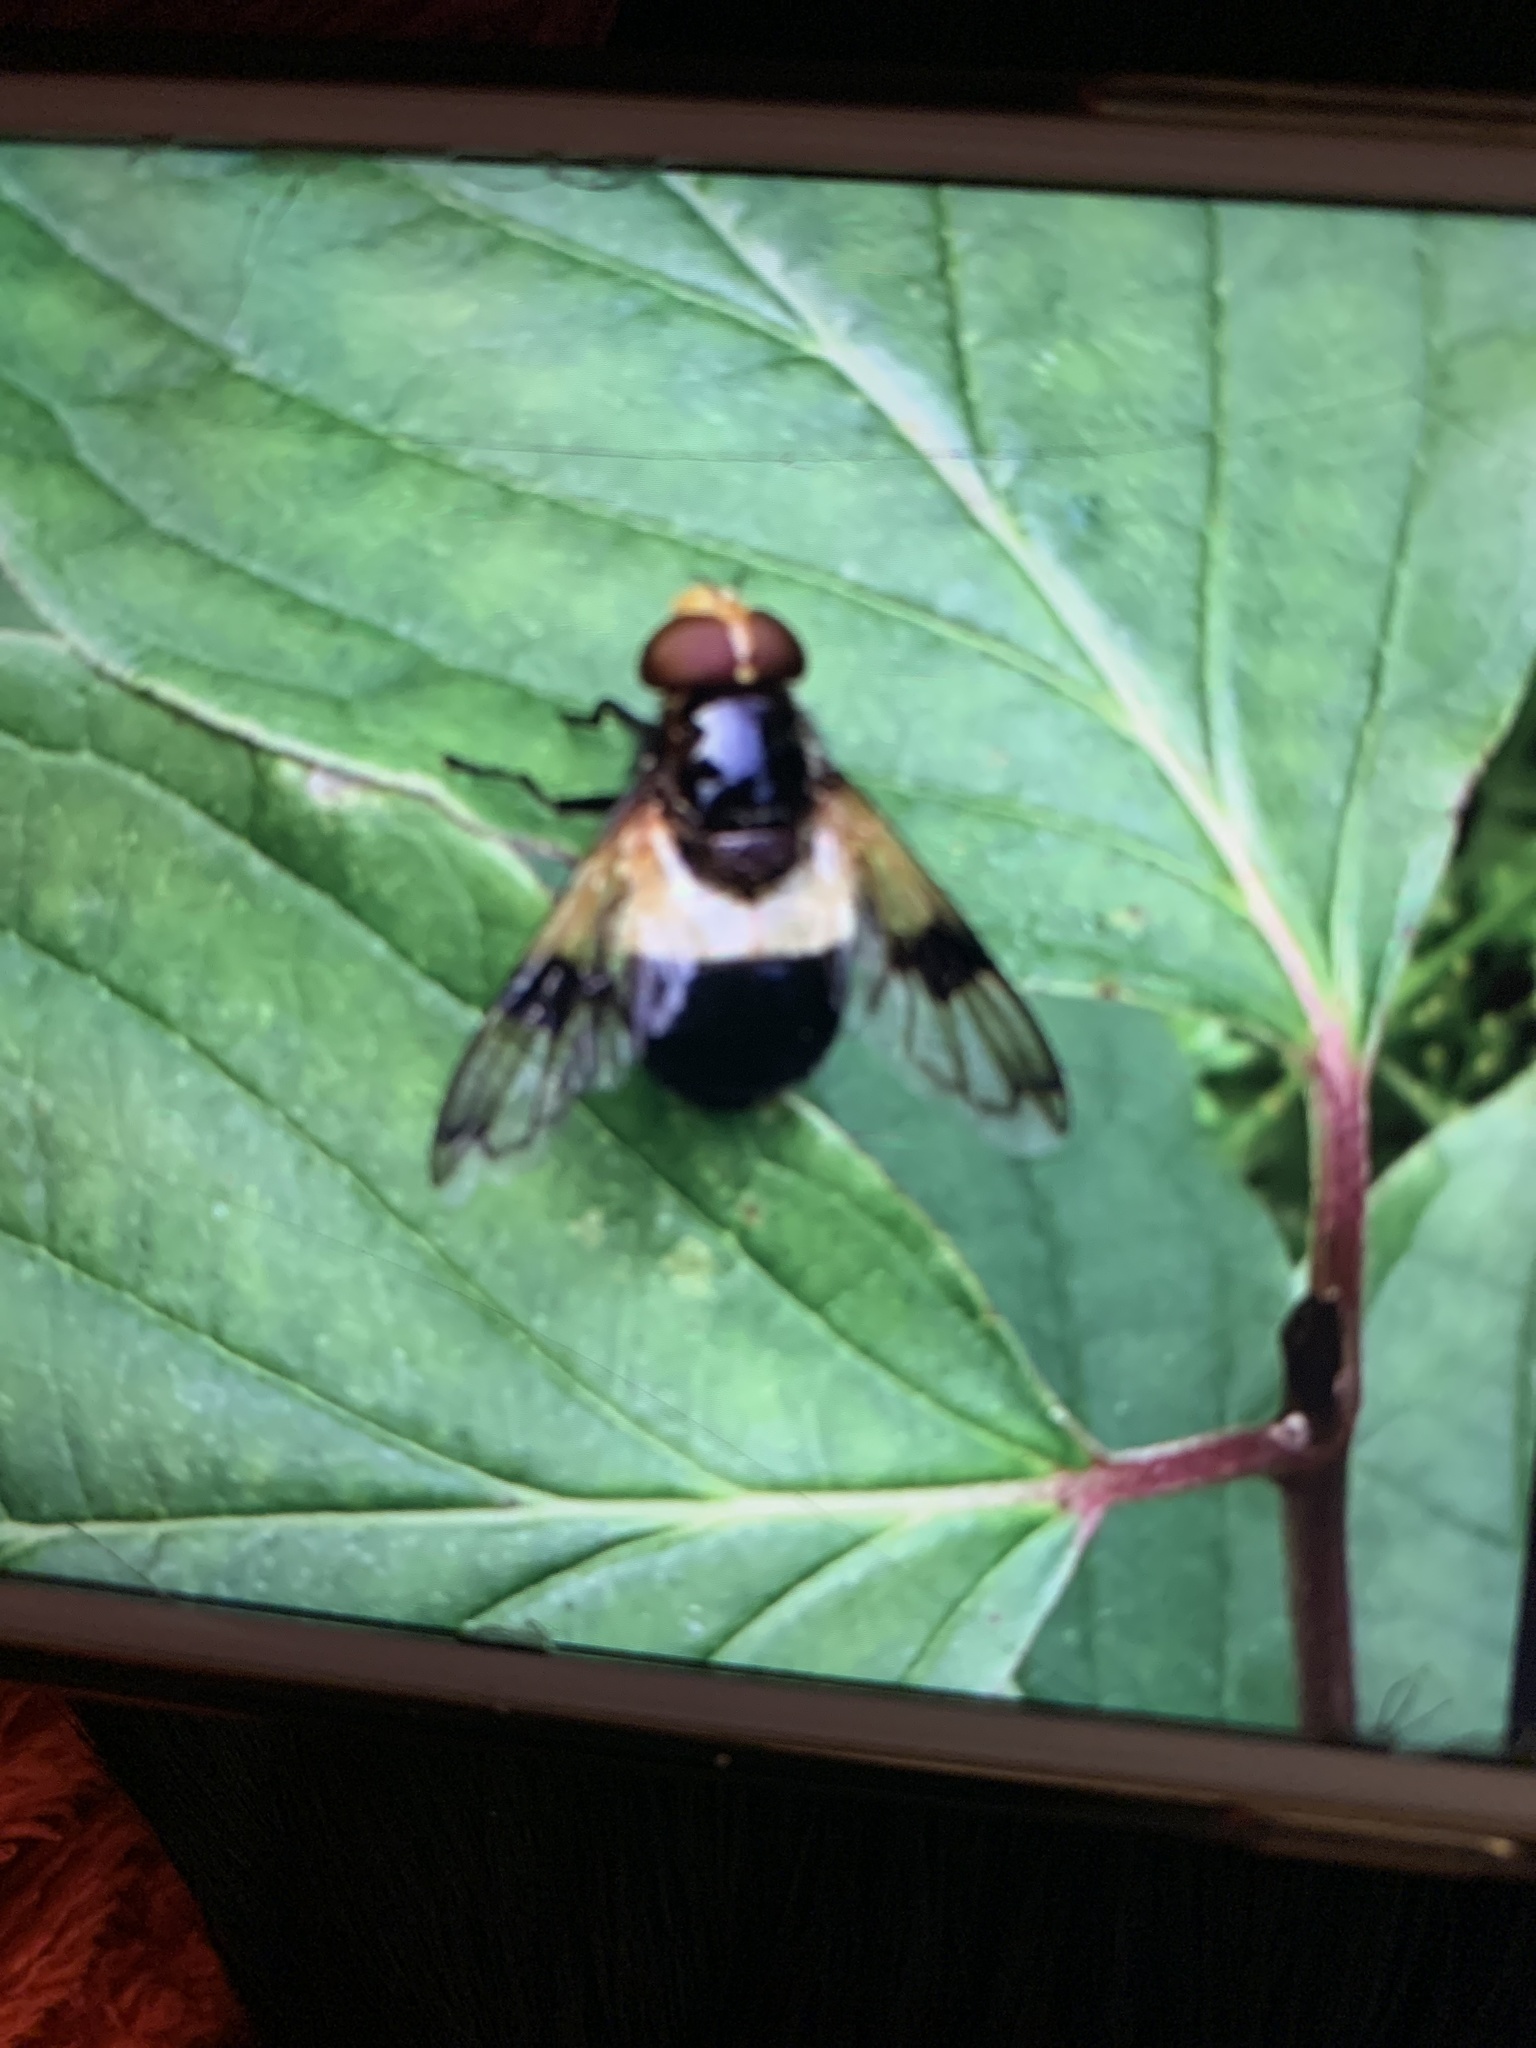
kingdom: Animalia
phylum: Arthropoda
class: Insecta
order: Diptera
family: Syrphidae
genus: Volucella
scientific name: Volucella pellucens
